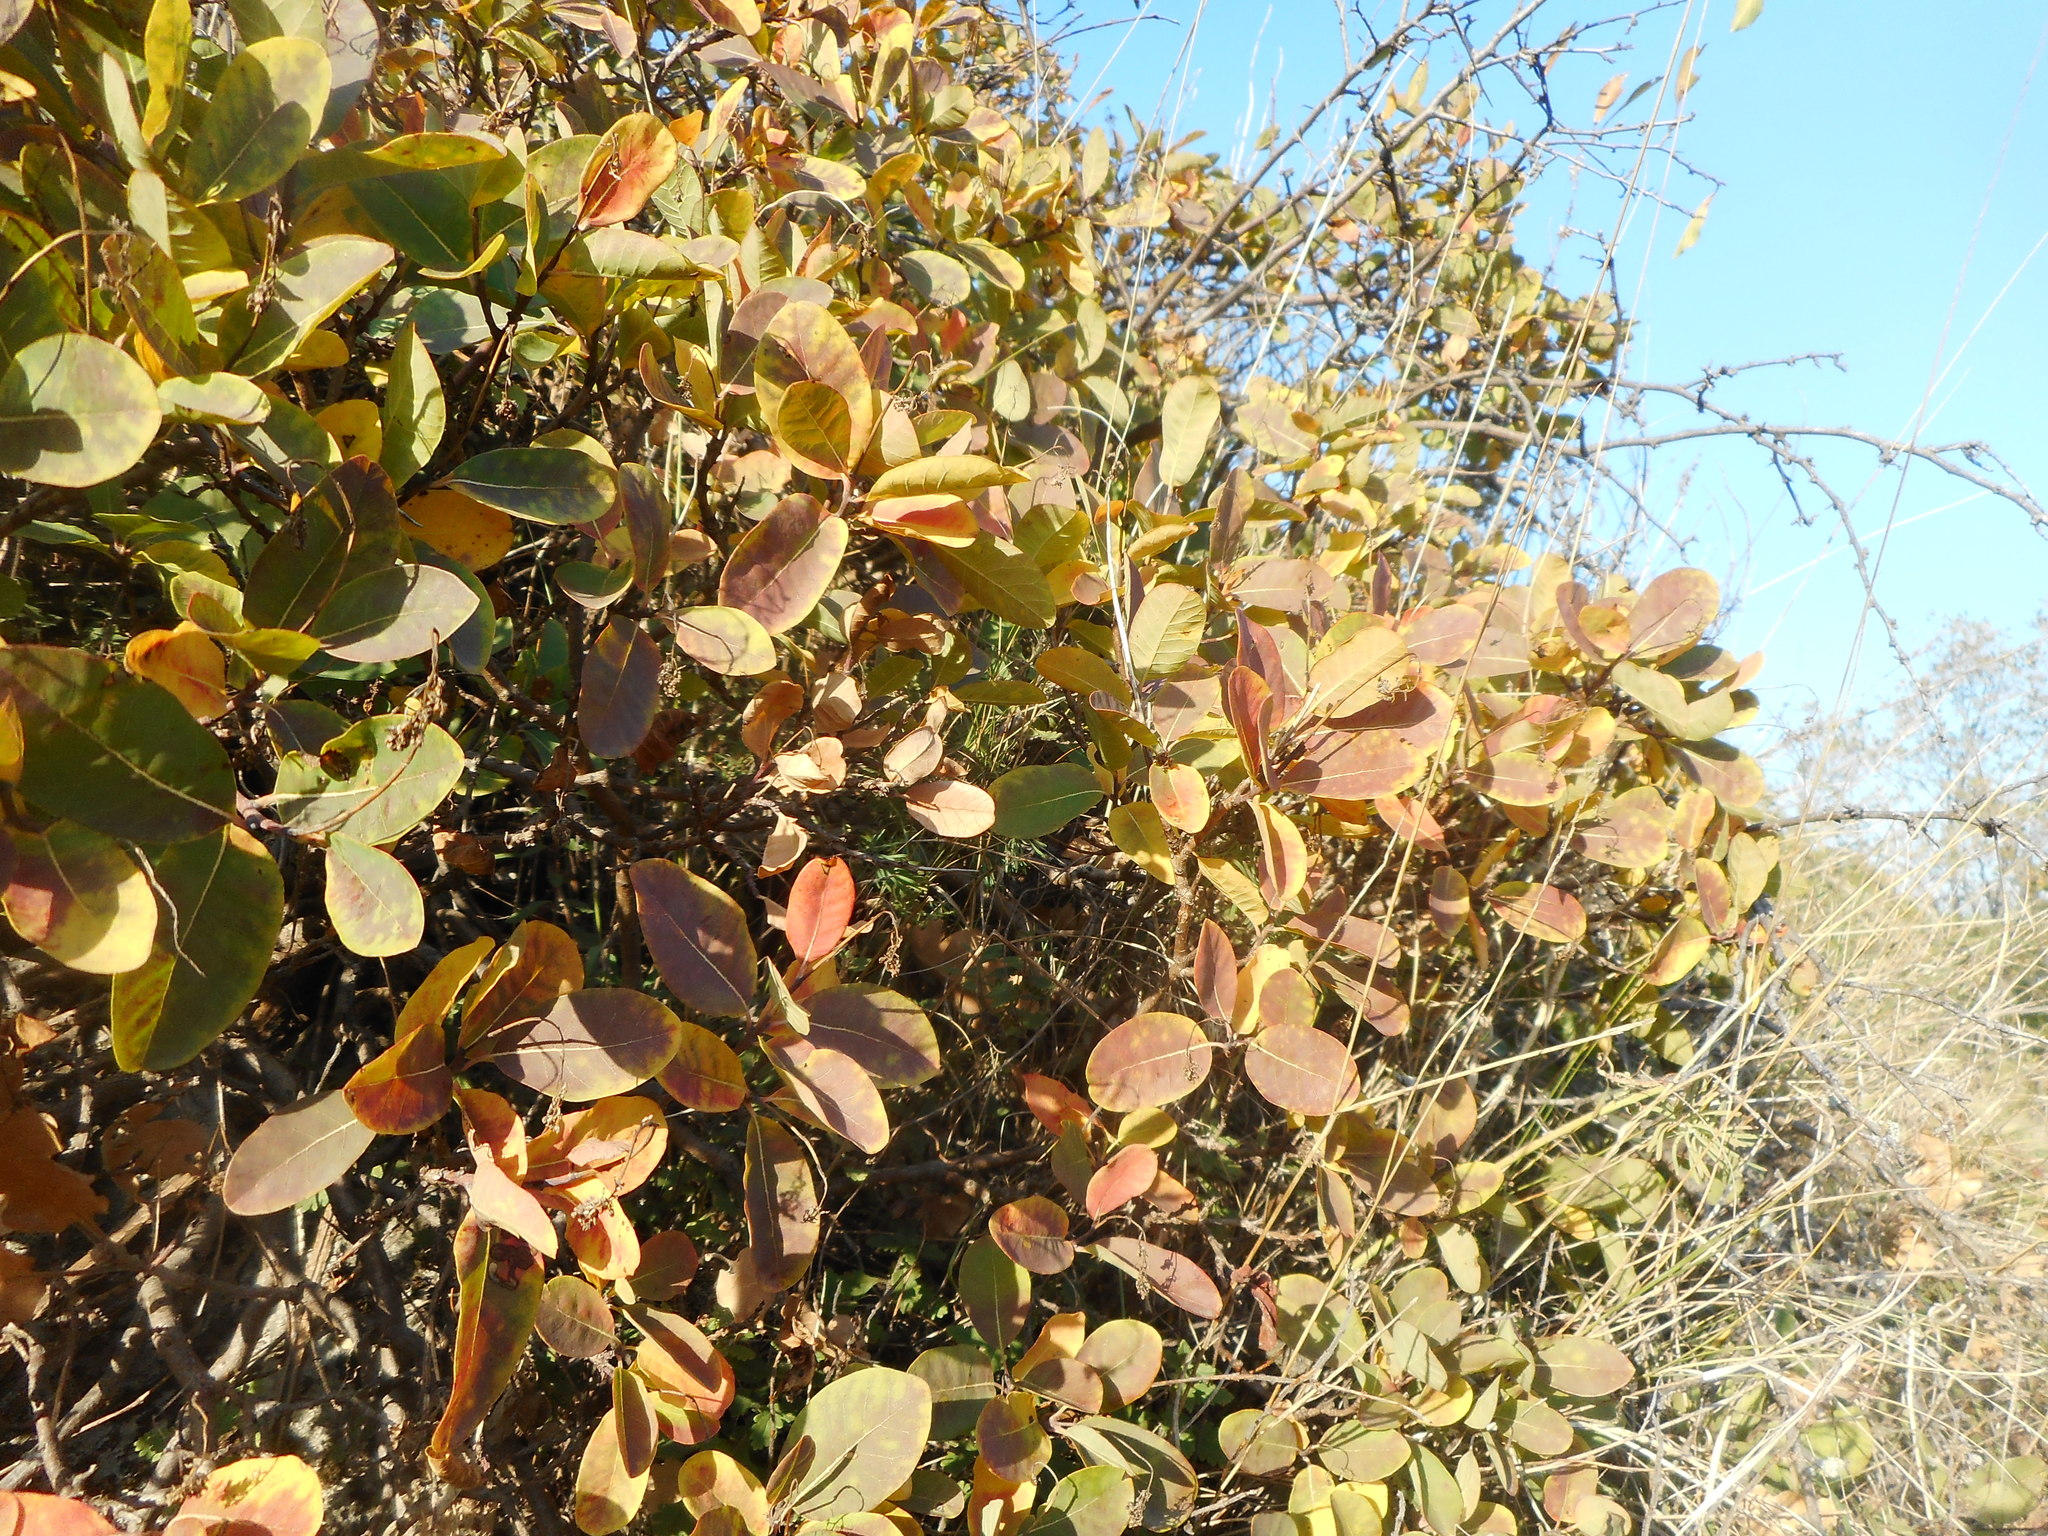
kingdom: Plantae
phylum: Tracheophyta
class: Magnoliopsida
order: Sapindales
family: Anacardiaceae
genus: Cotinus
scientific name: Cotinus coggygria
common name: Smoke-tree
